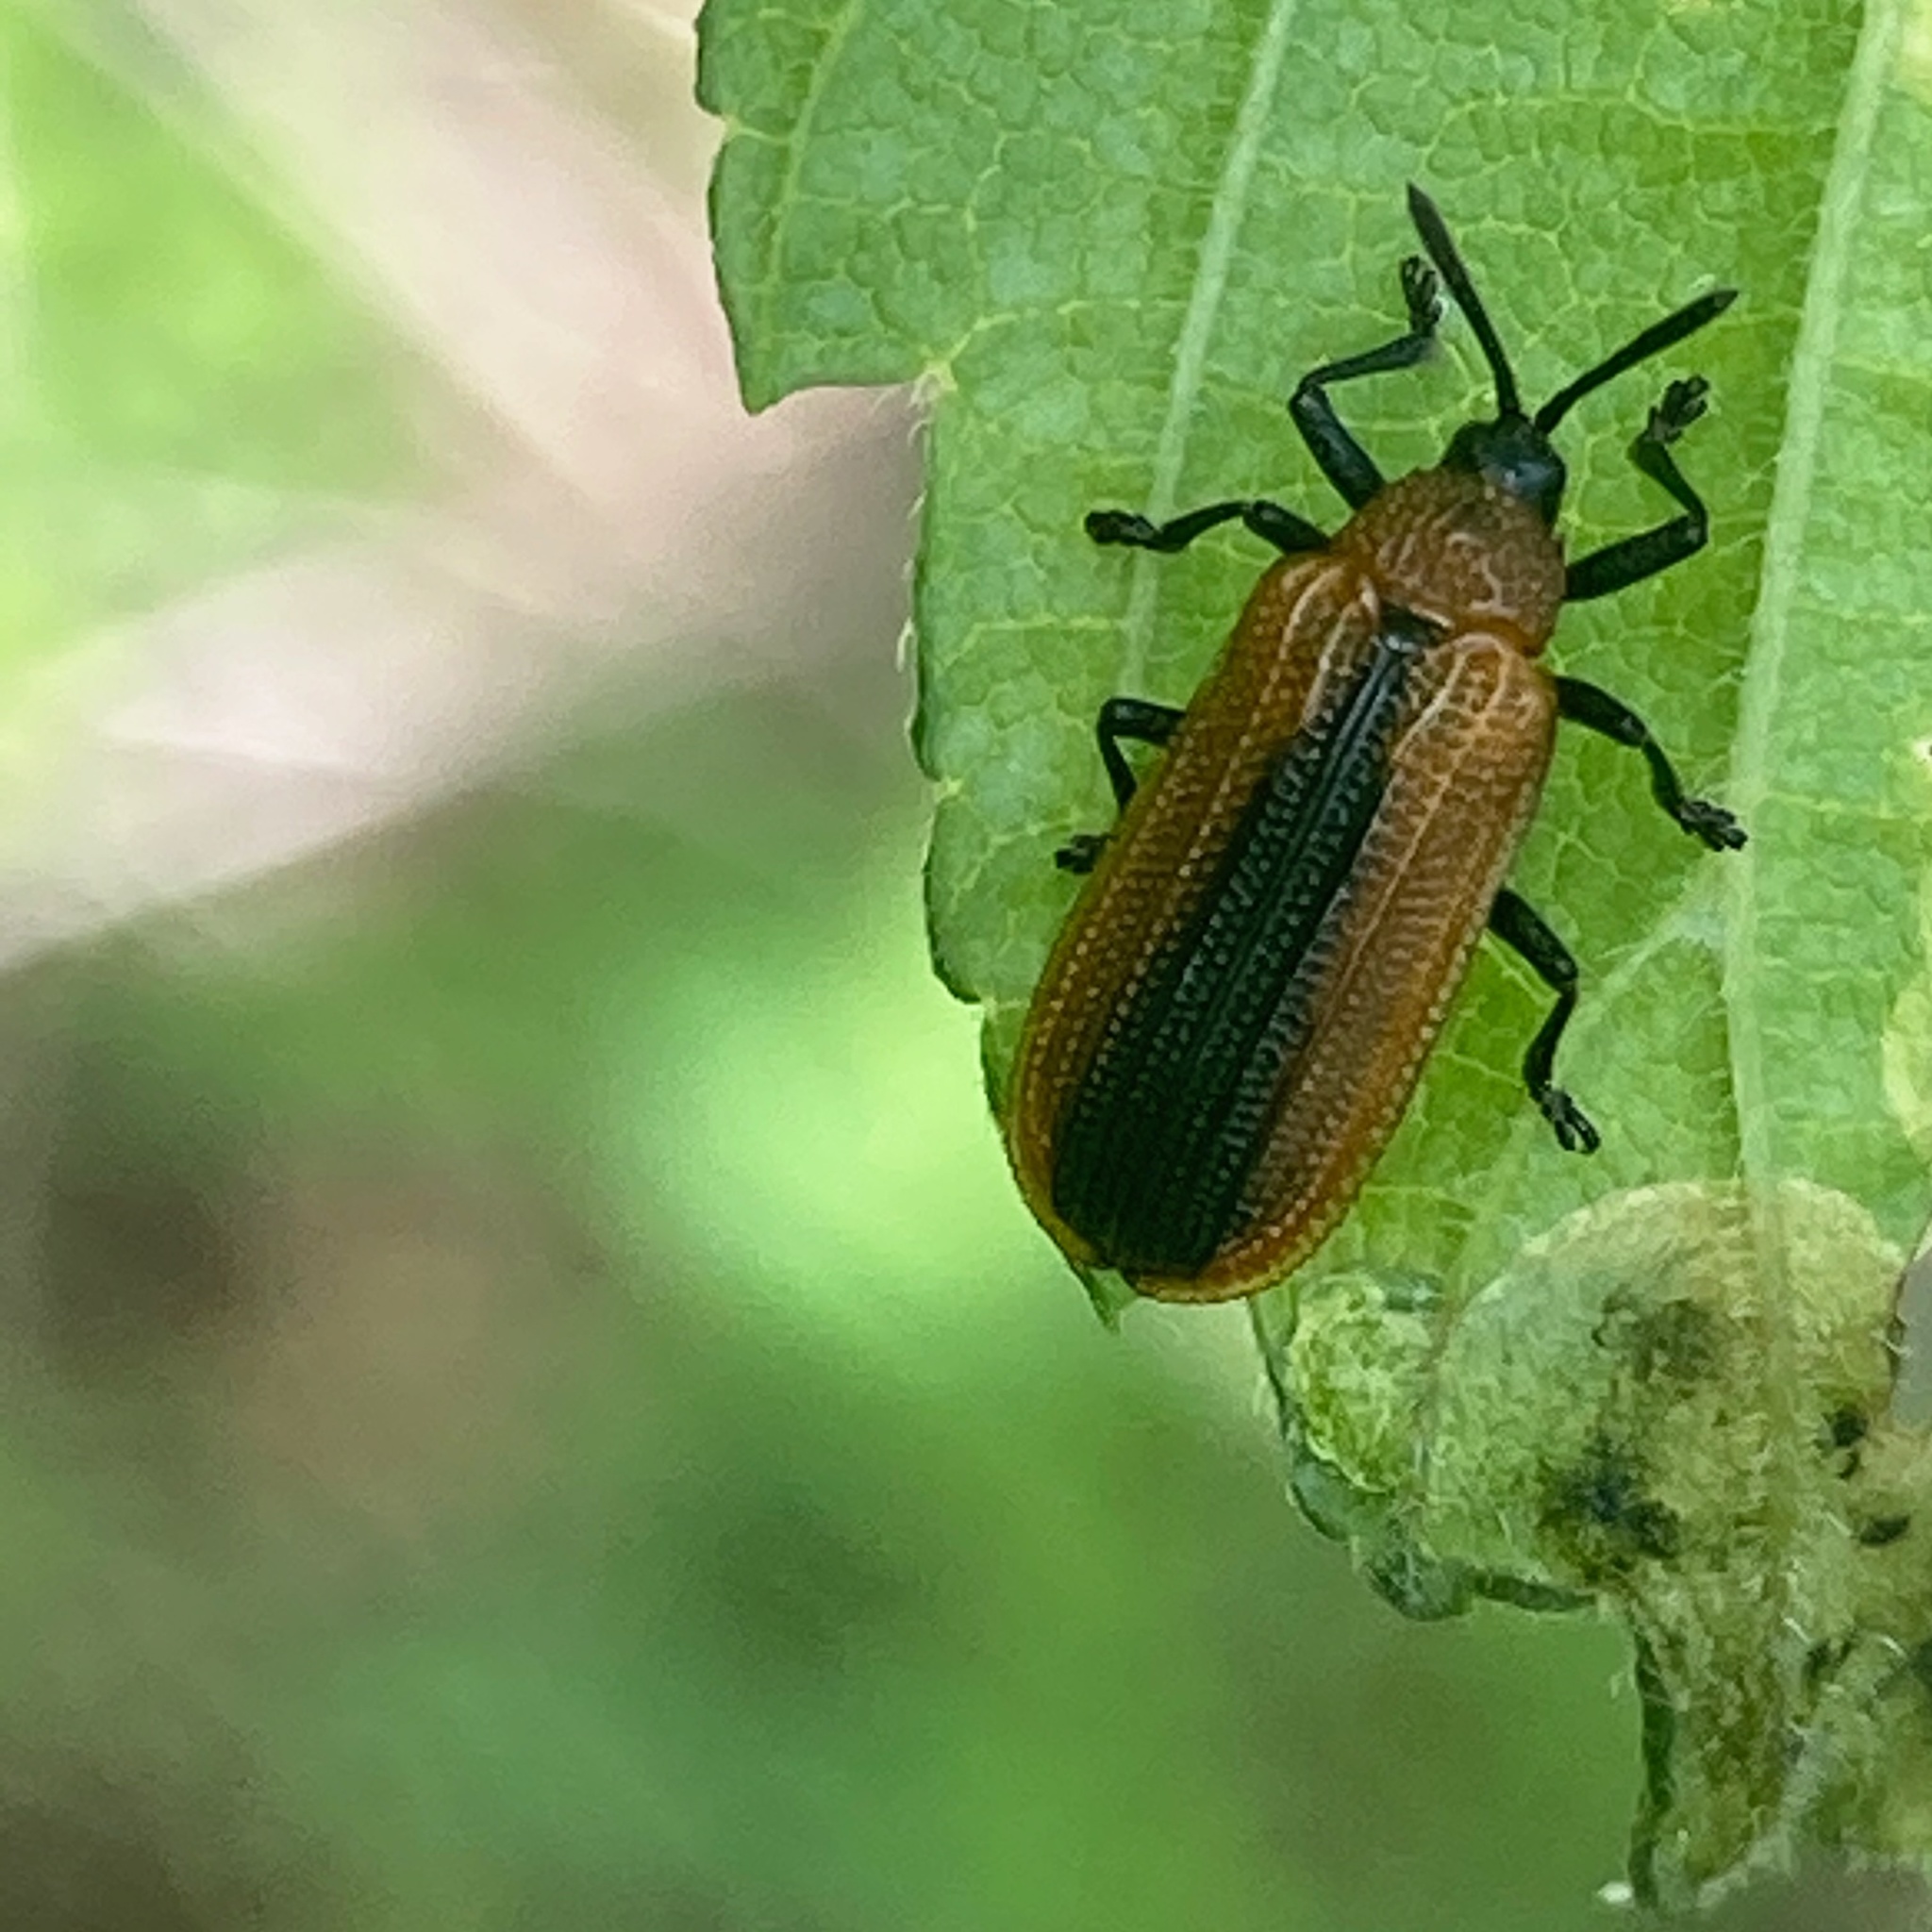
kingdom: Animalia
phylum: Arthropoda
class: Insecta
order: Coleoptera
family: Chrysomelidae
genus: Odontota
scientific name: Odontota dorsalis
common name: Locust leaf-miner beetle
